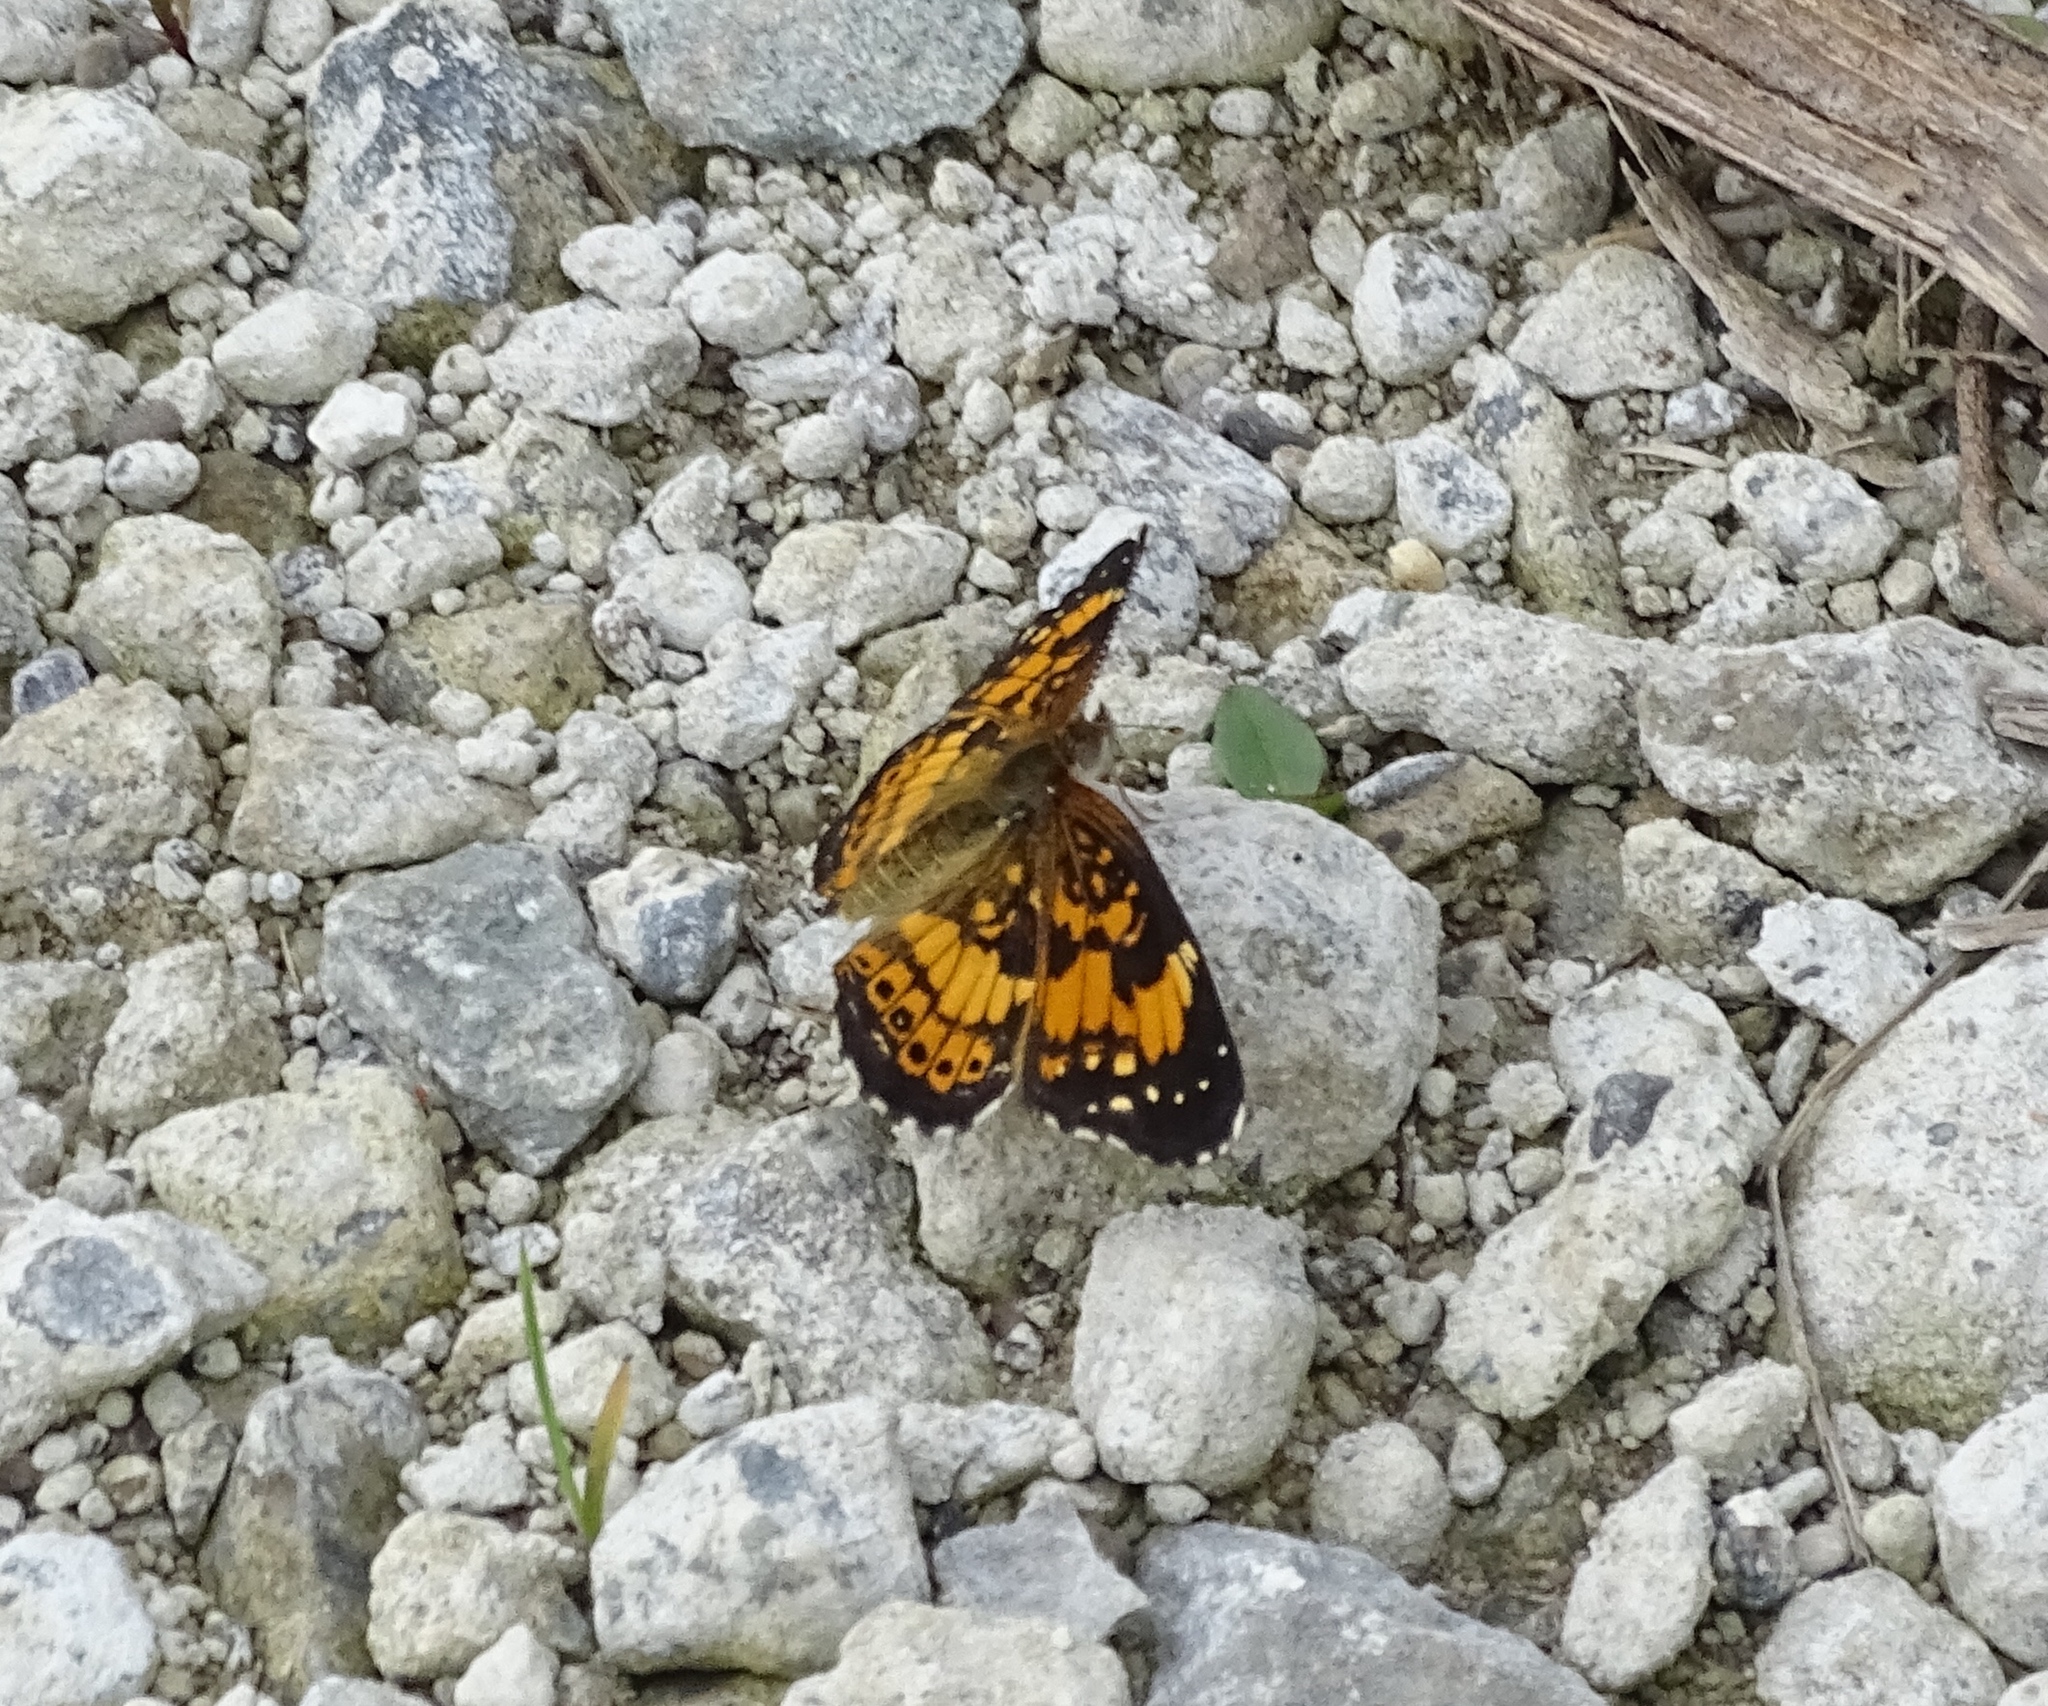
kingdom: Animalia
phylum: Arthropoda
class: Insecta
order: Lepidoptera
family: Nymphalidae
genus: Chlosyne
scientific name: Chlosyne nycteis
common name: Silvery checkerspot
